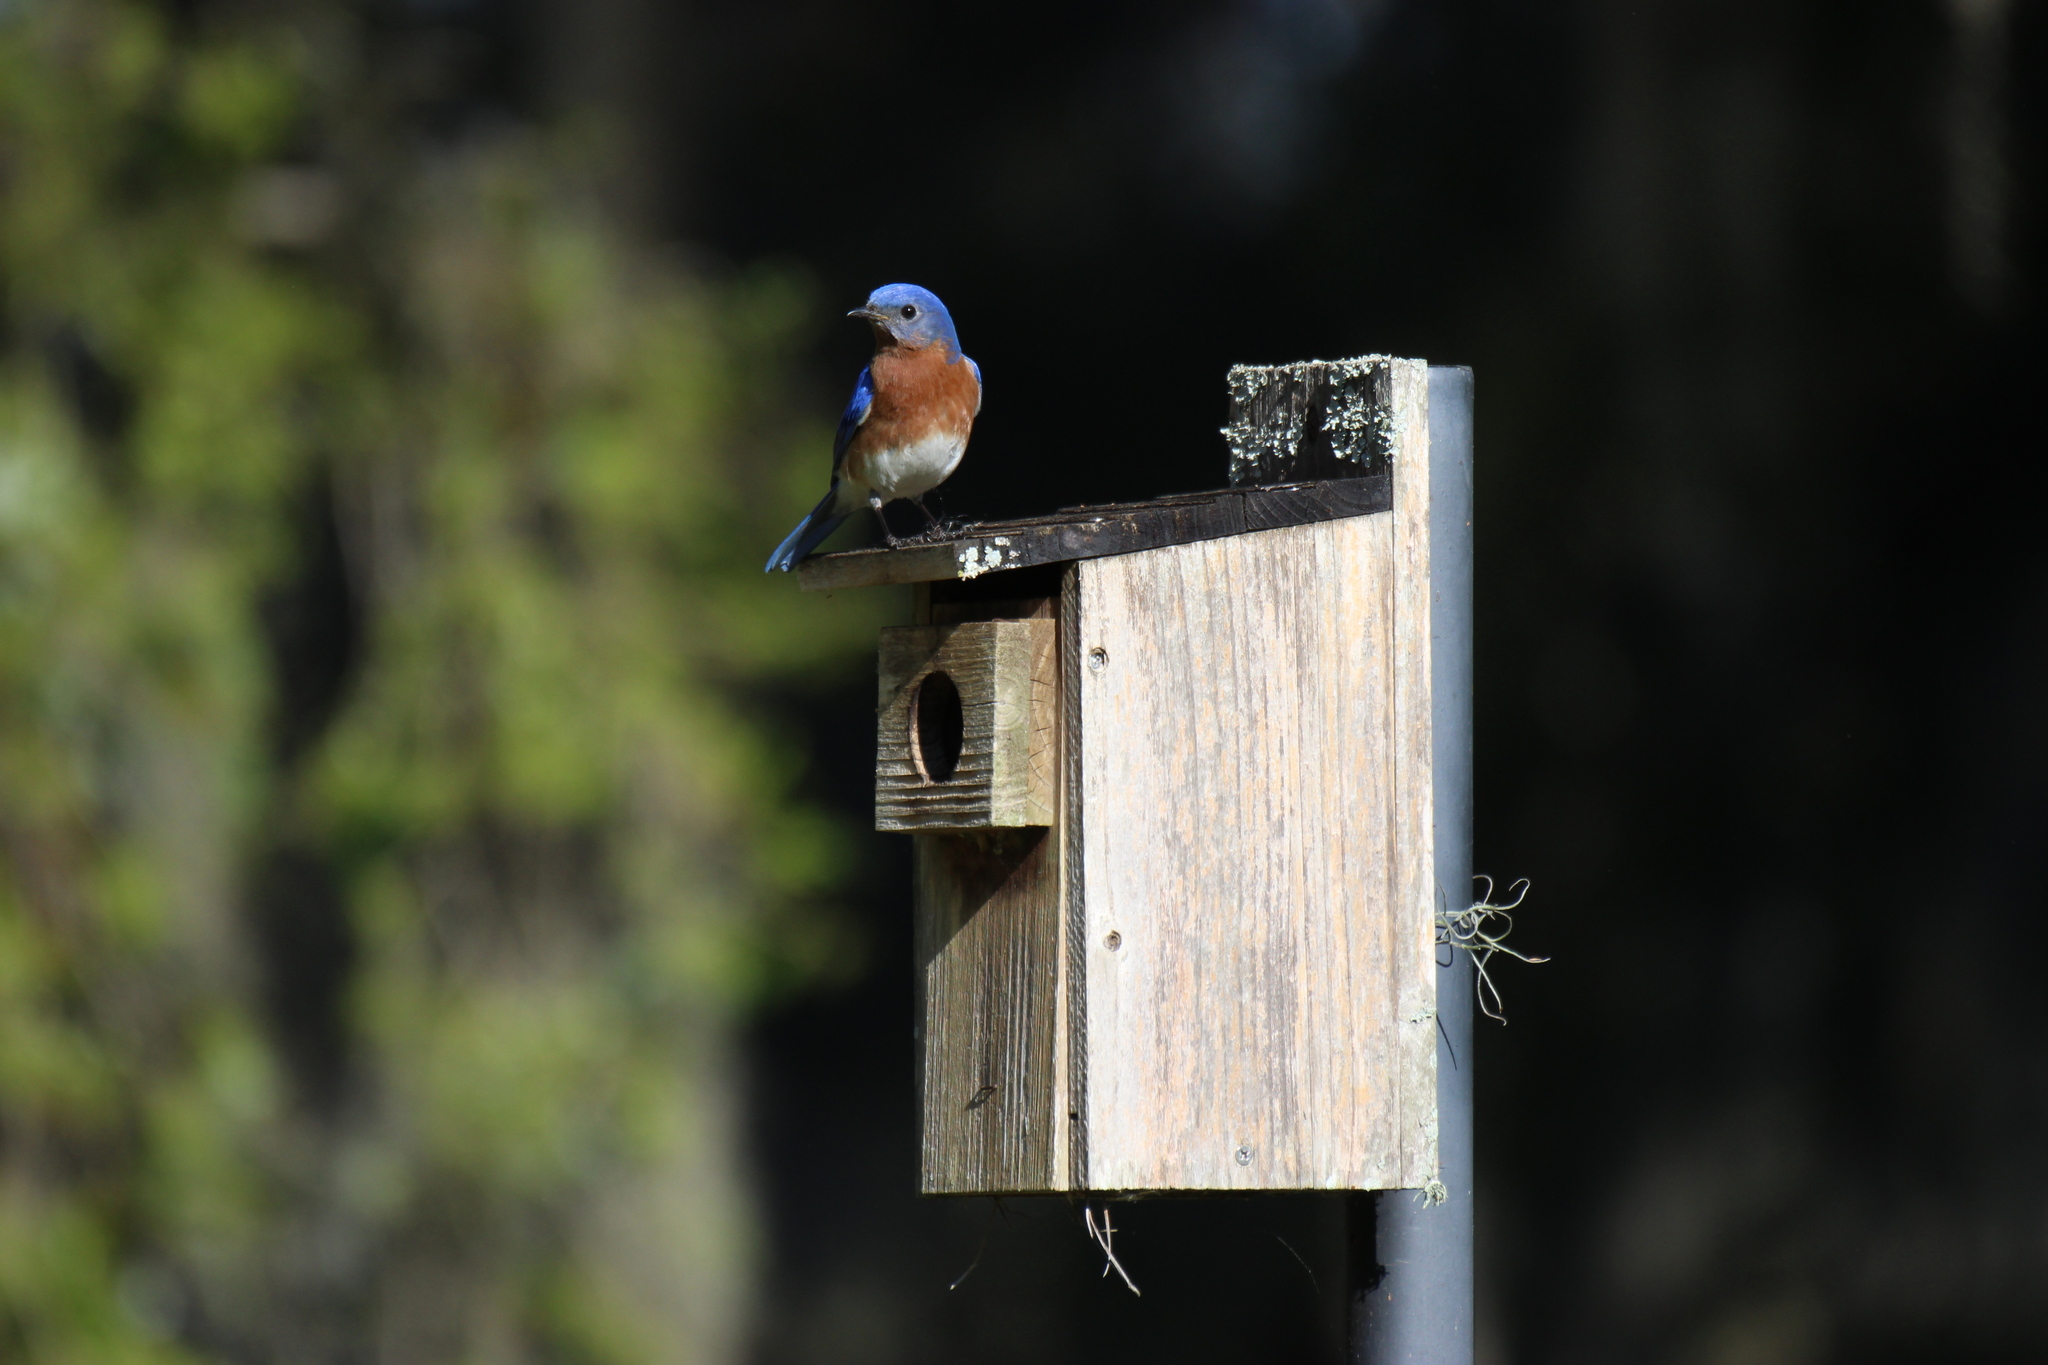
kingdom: Animalia
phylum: Chordata
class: Aves
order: Passeriformes
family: Turdidae
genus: Sialia
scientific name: Sialia sialis
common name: Eastern bluebird
